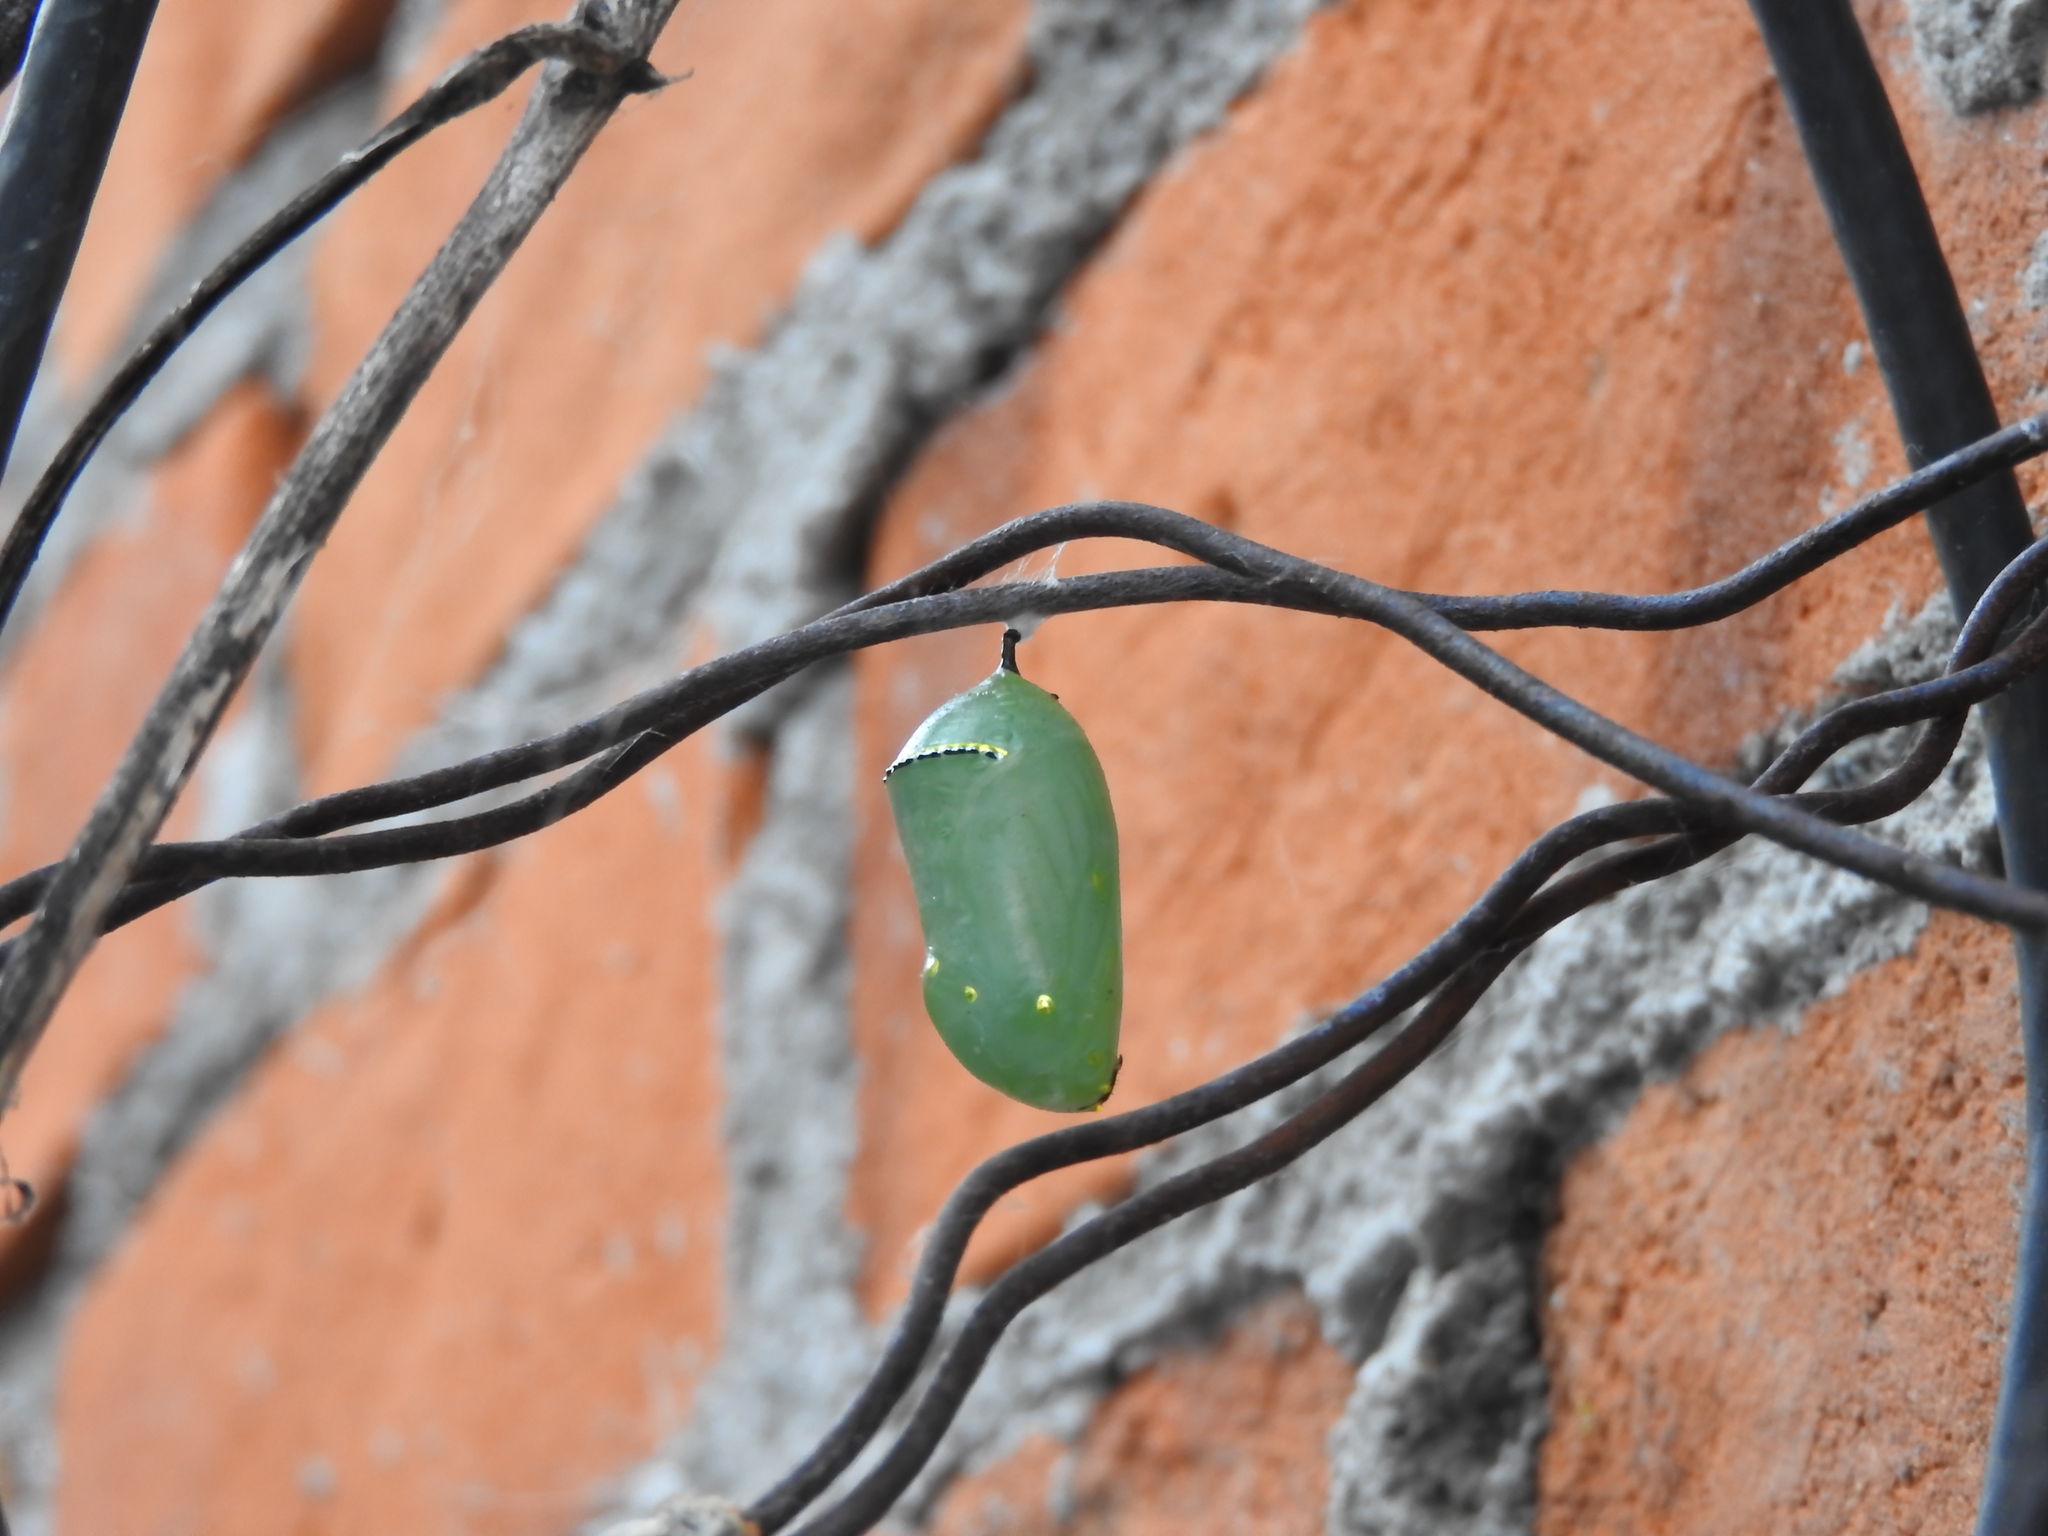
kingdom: Animalia
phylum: Arthropoda
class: Insecta
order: Lepidoptera
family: Nymphalidae
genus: Danaus
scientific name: Danaus plexippus
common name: Monarch
